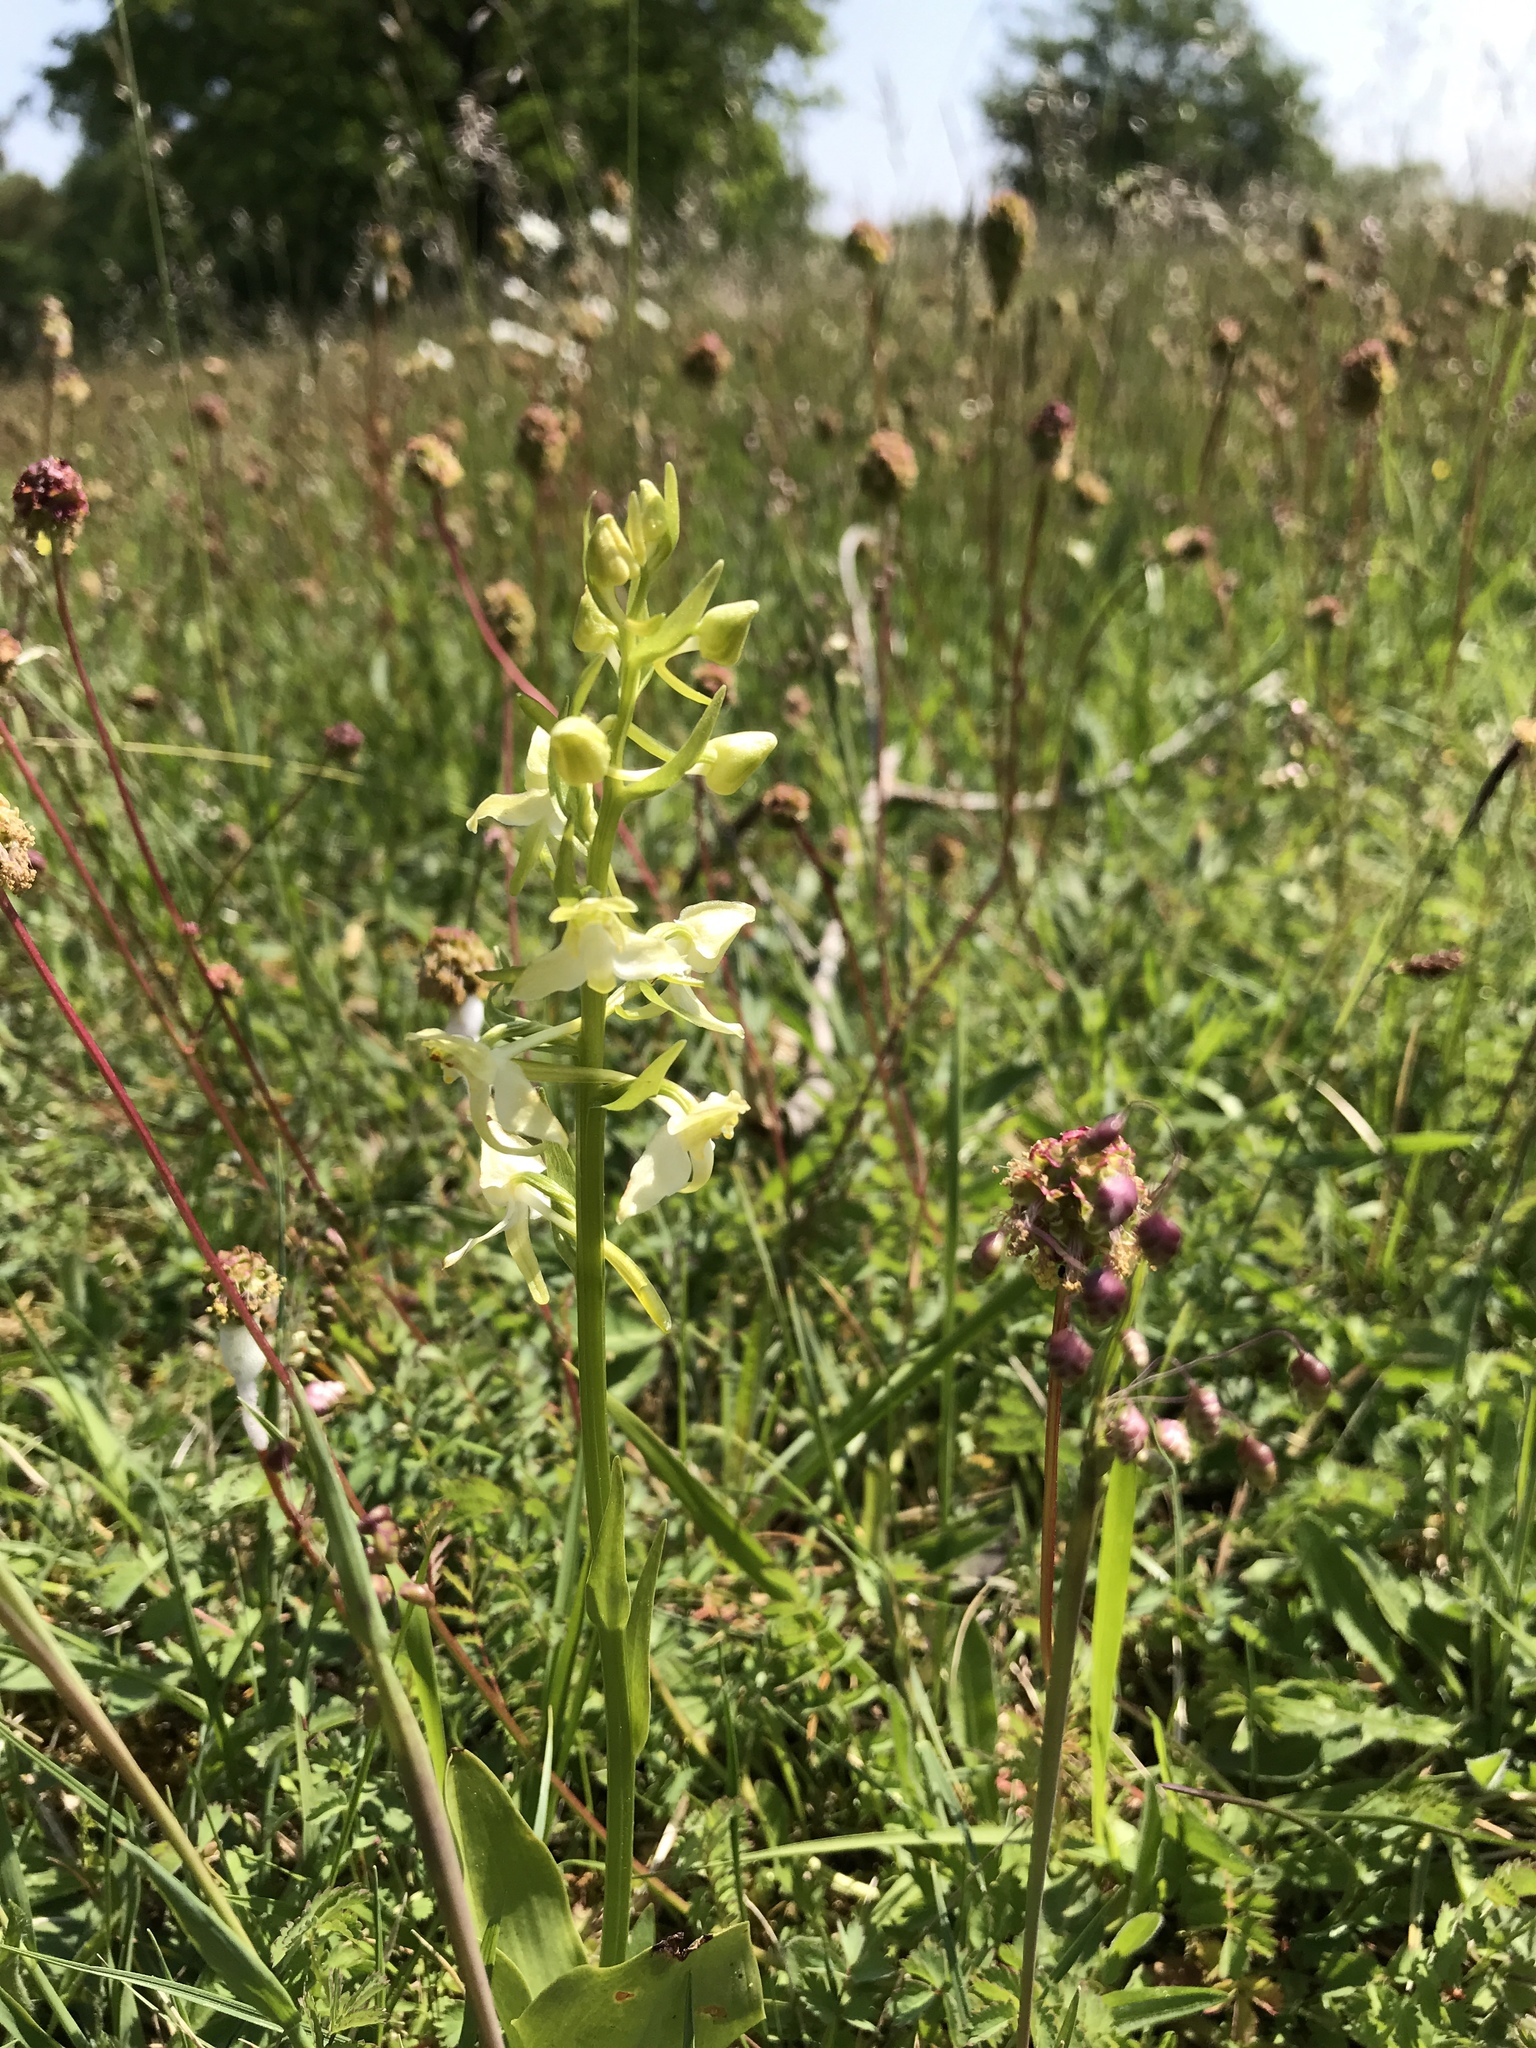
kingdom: Plantae
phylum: Tracheophyta
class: Liliopsida
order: Asparagales
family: Orchidaceae
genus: Platanthera
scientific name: Platanthera bifolia
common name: Lesser butterfly-orchid
